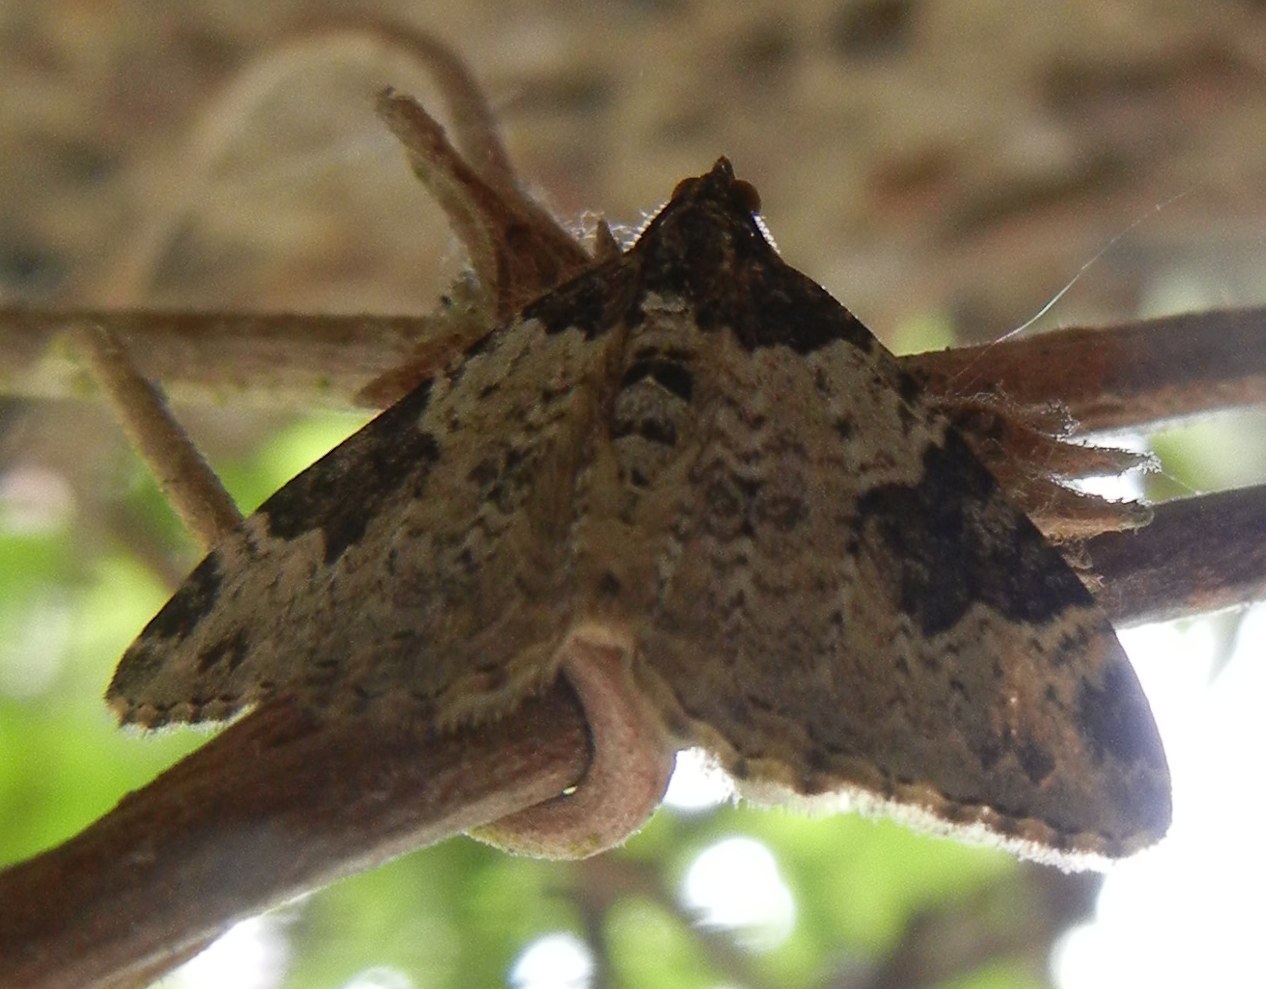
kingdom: Animalia
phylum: Arthropoda
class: Insecta
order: Lepidoptera
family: Geometridae
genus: Xanthorhoe
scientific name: Xanthorhoe fluctuata
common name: Garden carpet
